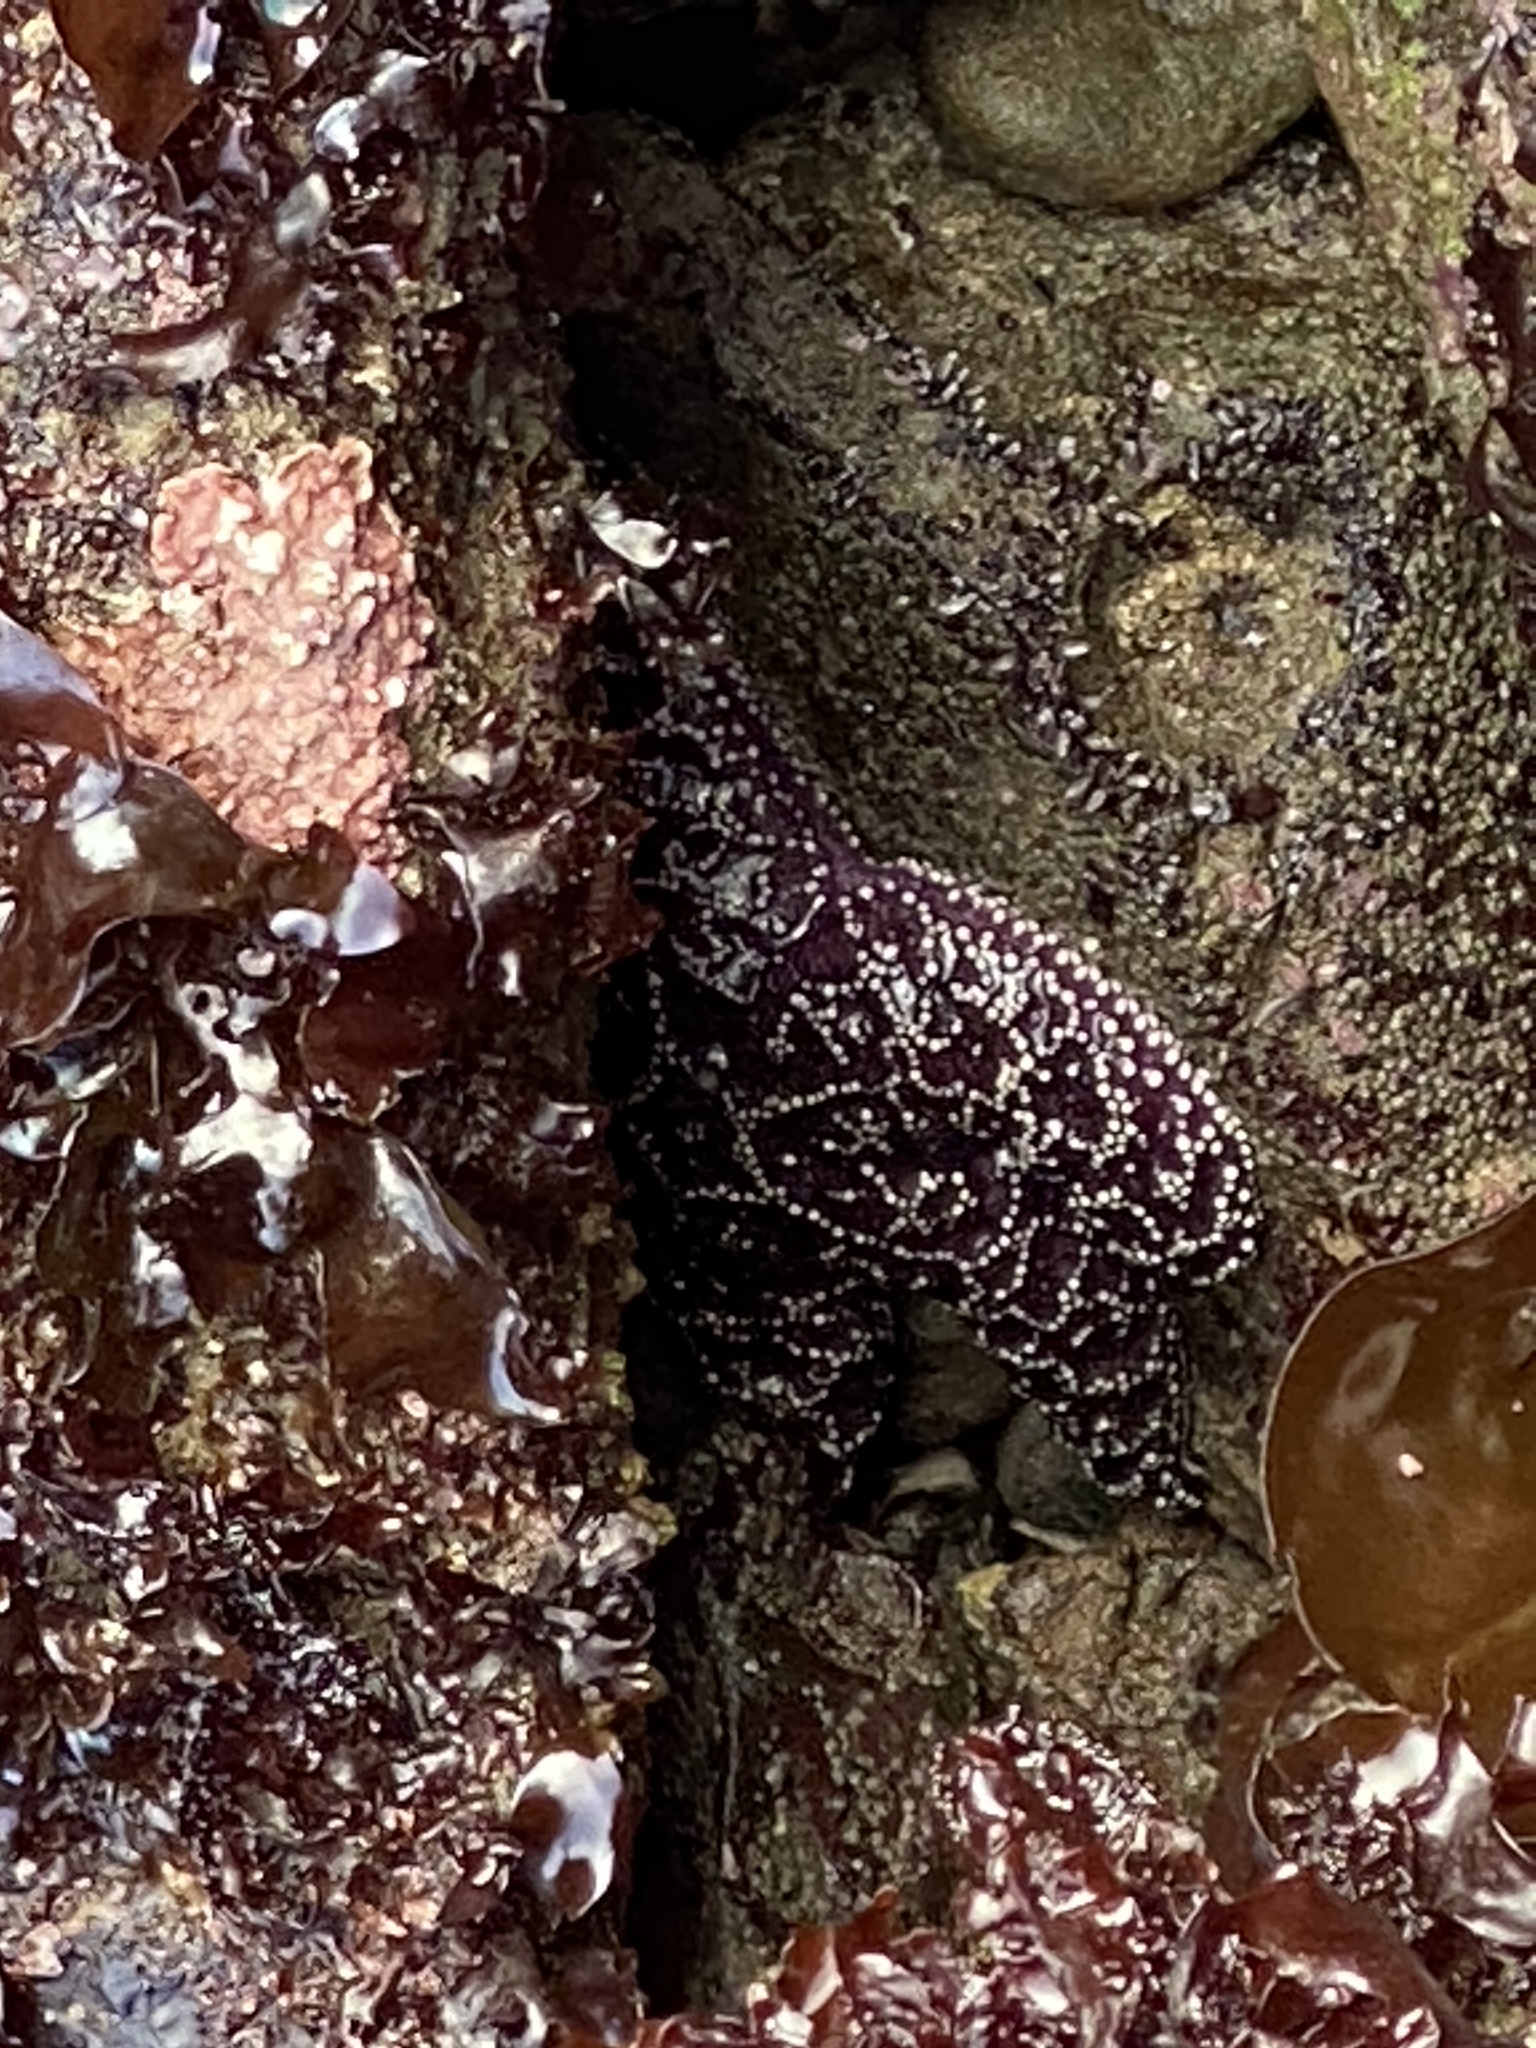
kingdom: Animalia
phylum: Echinodermata
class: Asteroidea
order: Forcipulatida
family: Asteriidae
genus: Pisaster
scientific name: Pisaster ochraceus
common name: Ochre stars
